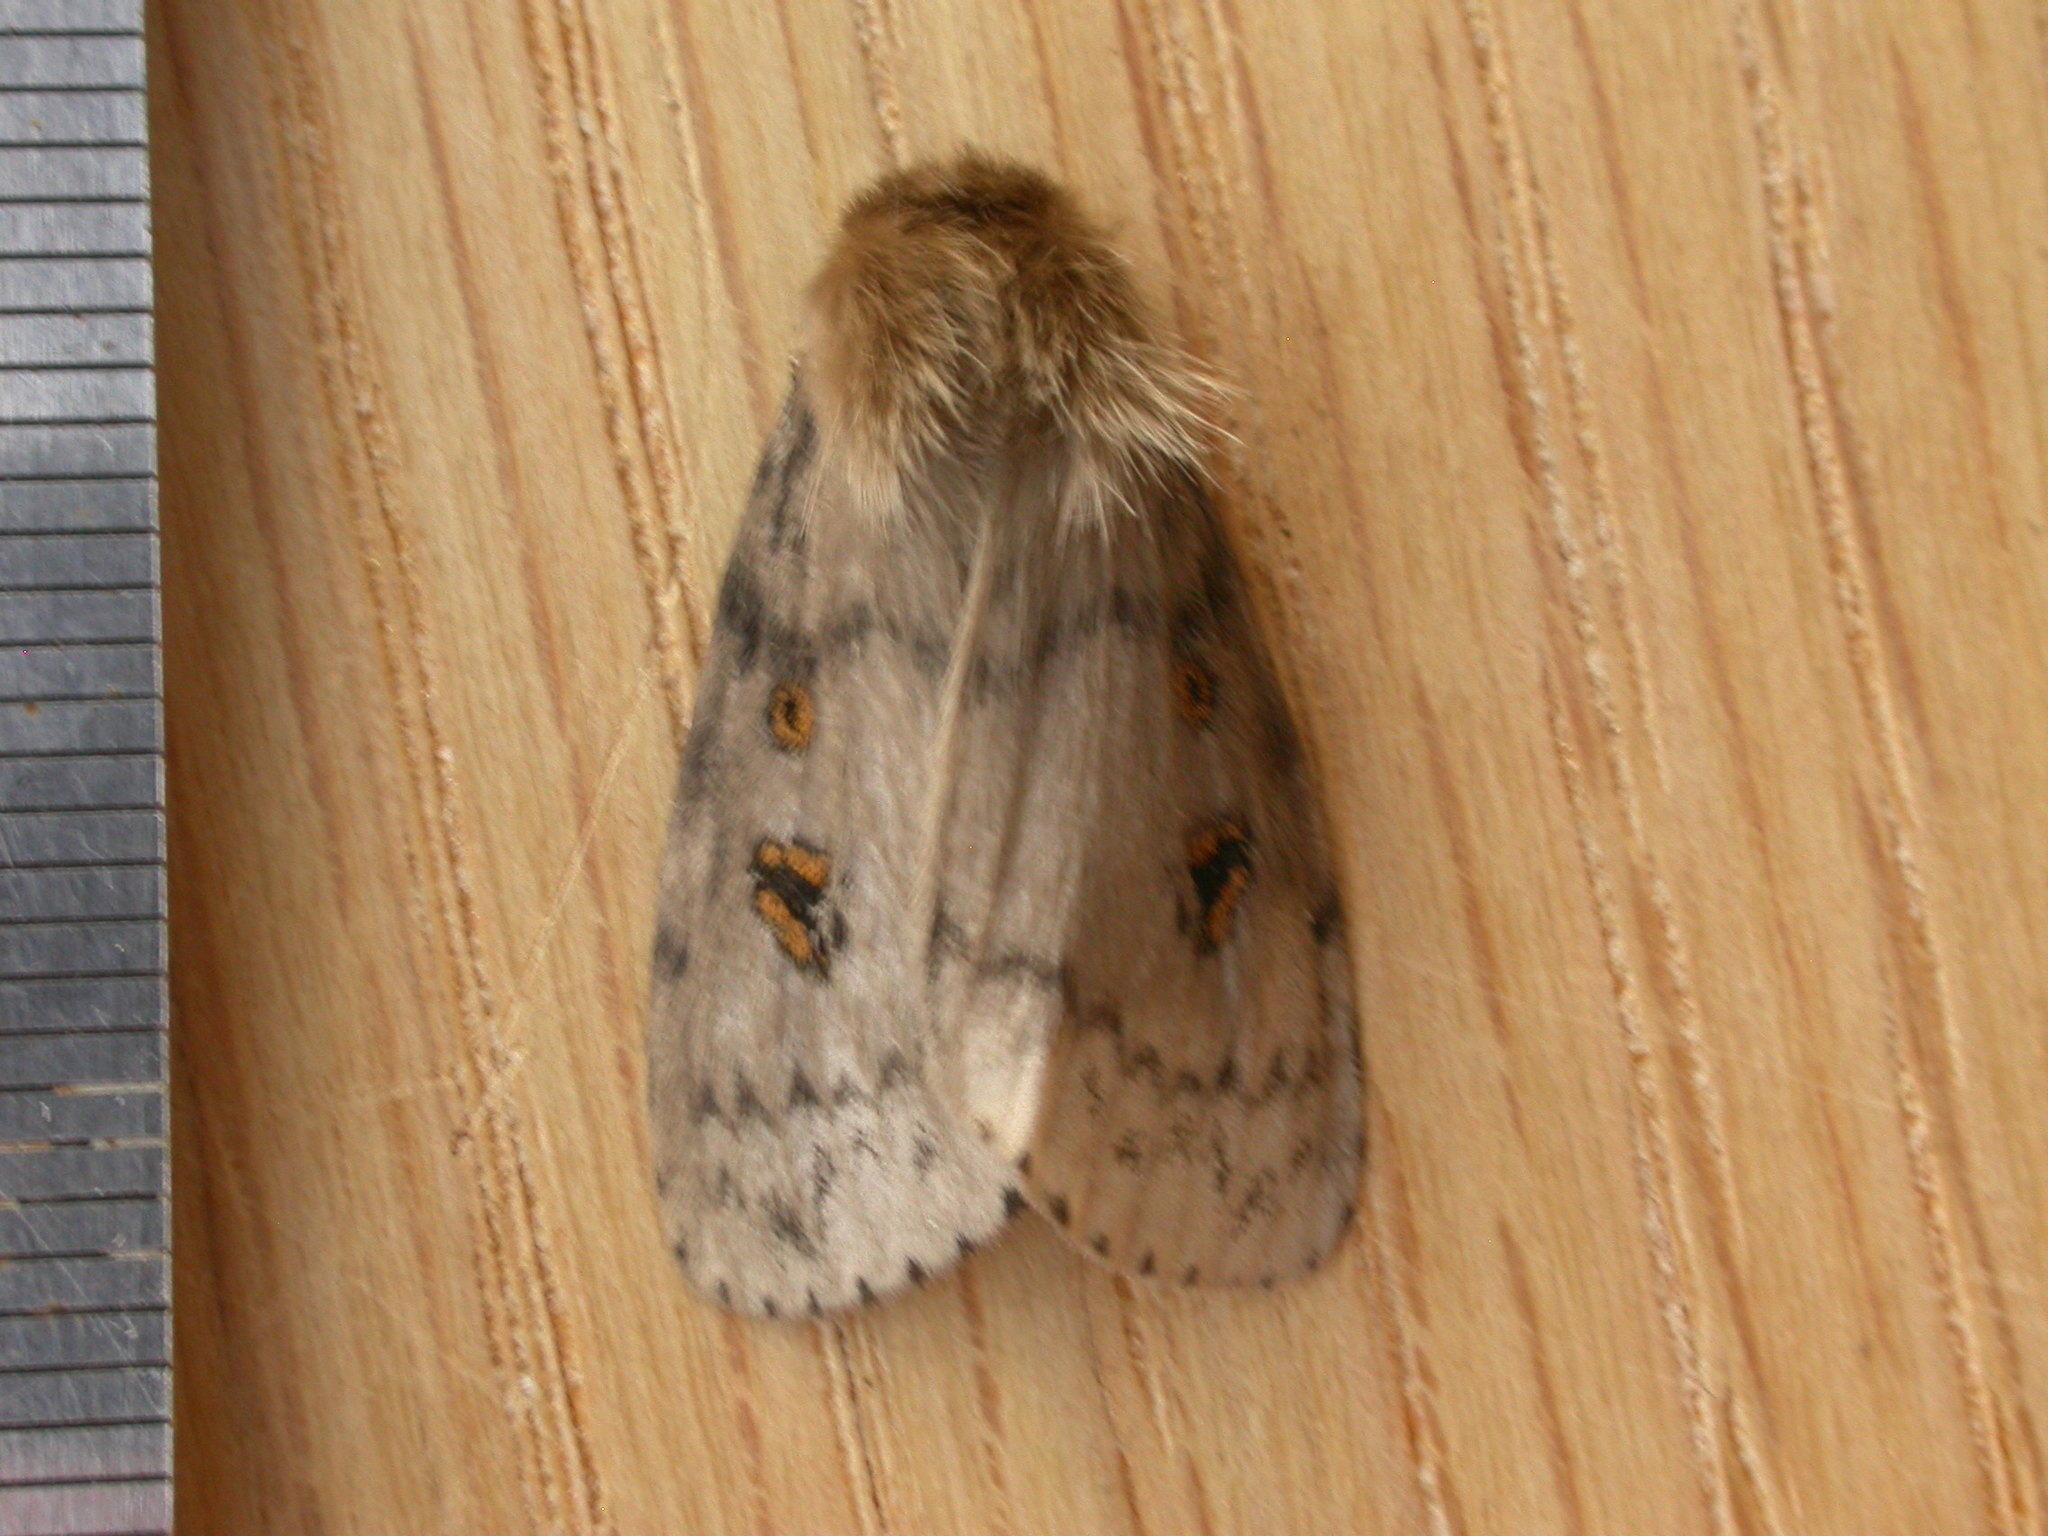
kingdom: Animalia
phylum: Arthropoda
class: Insecta
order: Lepidoptera
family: Erebidae
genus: Leptocneria
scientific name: Leptocneria reducta
